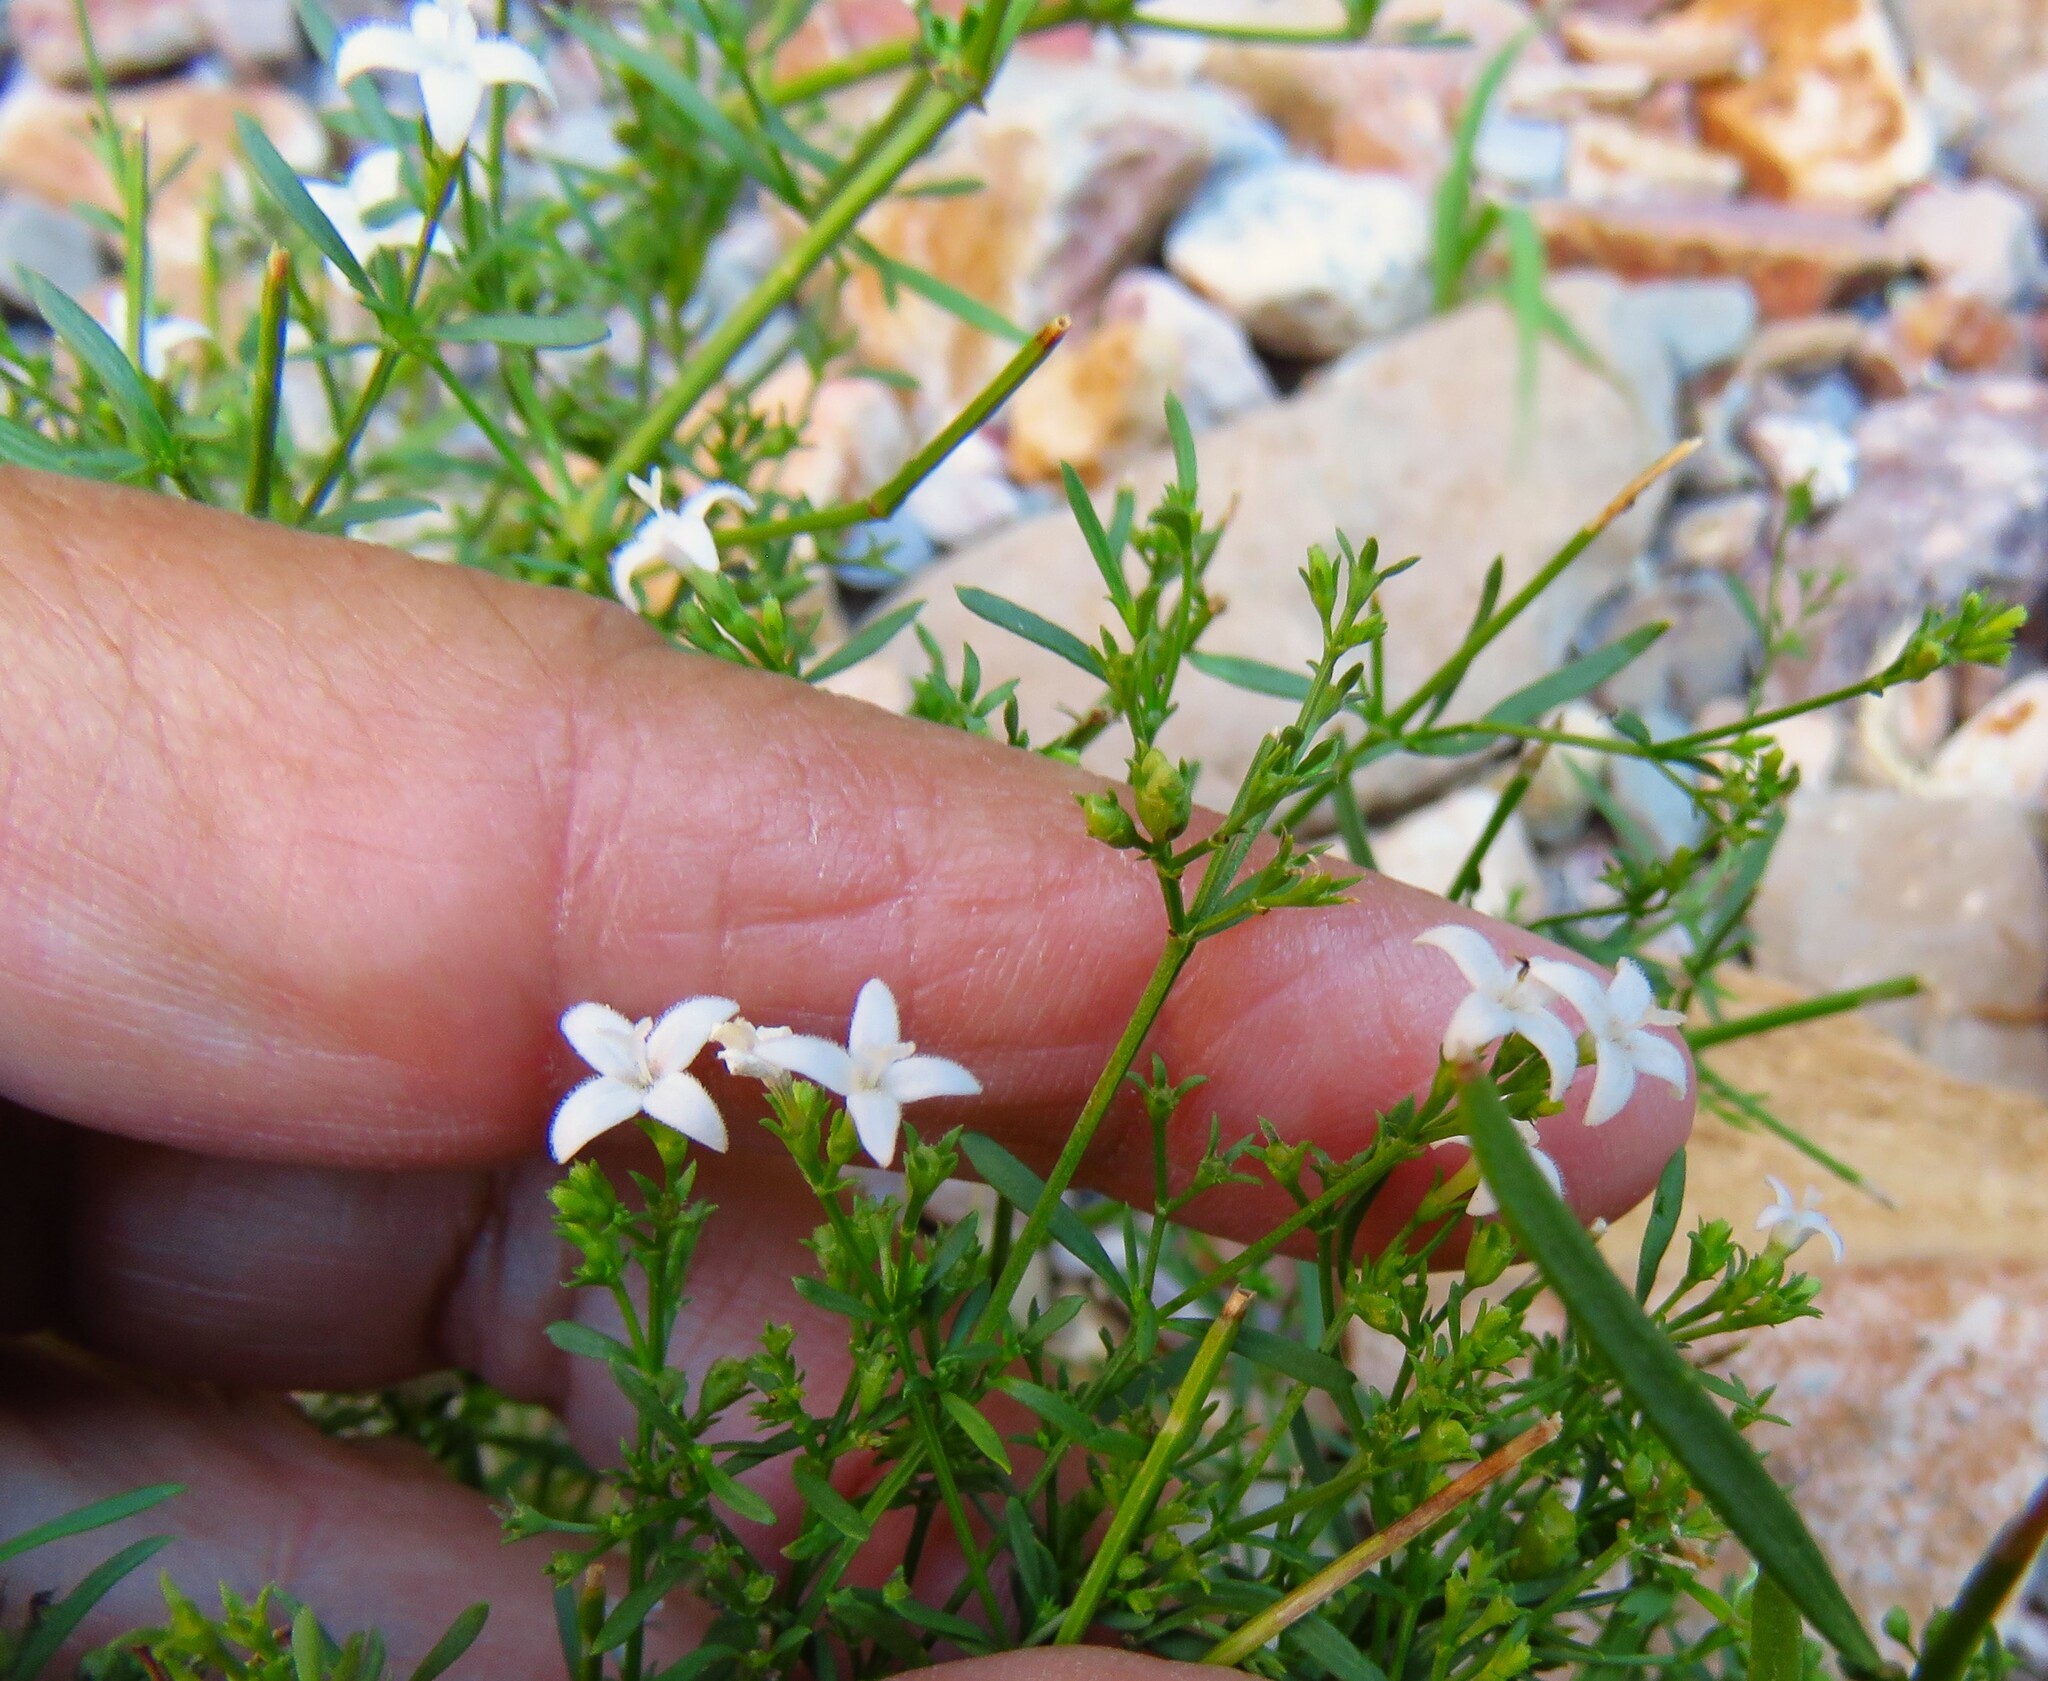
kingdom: Plantae
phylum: Tracheophyta
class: Magnoliopsida
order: Gentianales
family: Rubiaceae
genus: Stenaria
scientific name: Stenaria nigricans
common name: Diamondflowers
